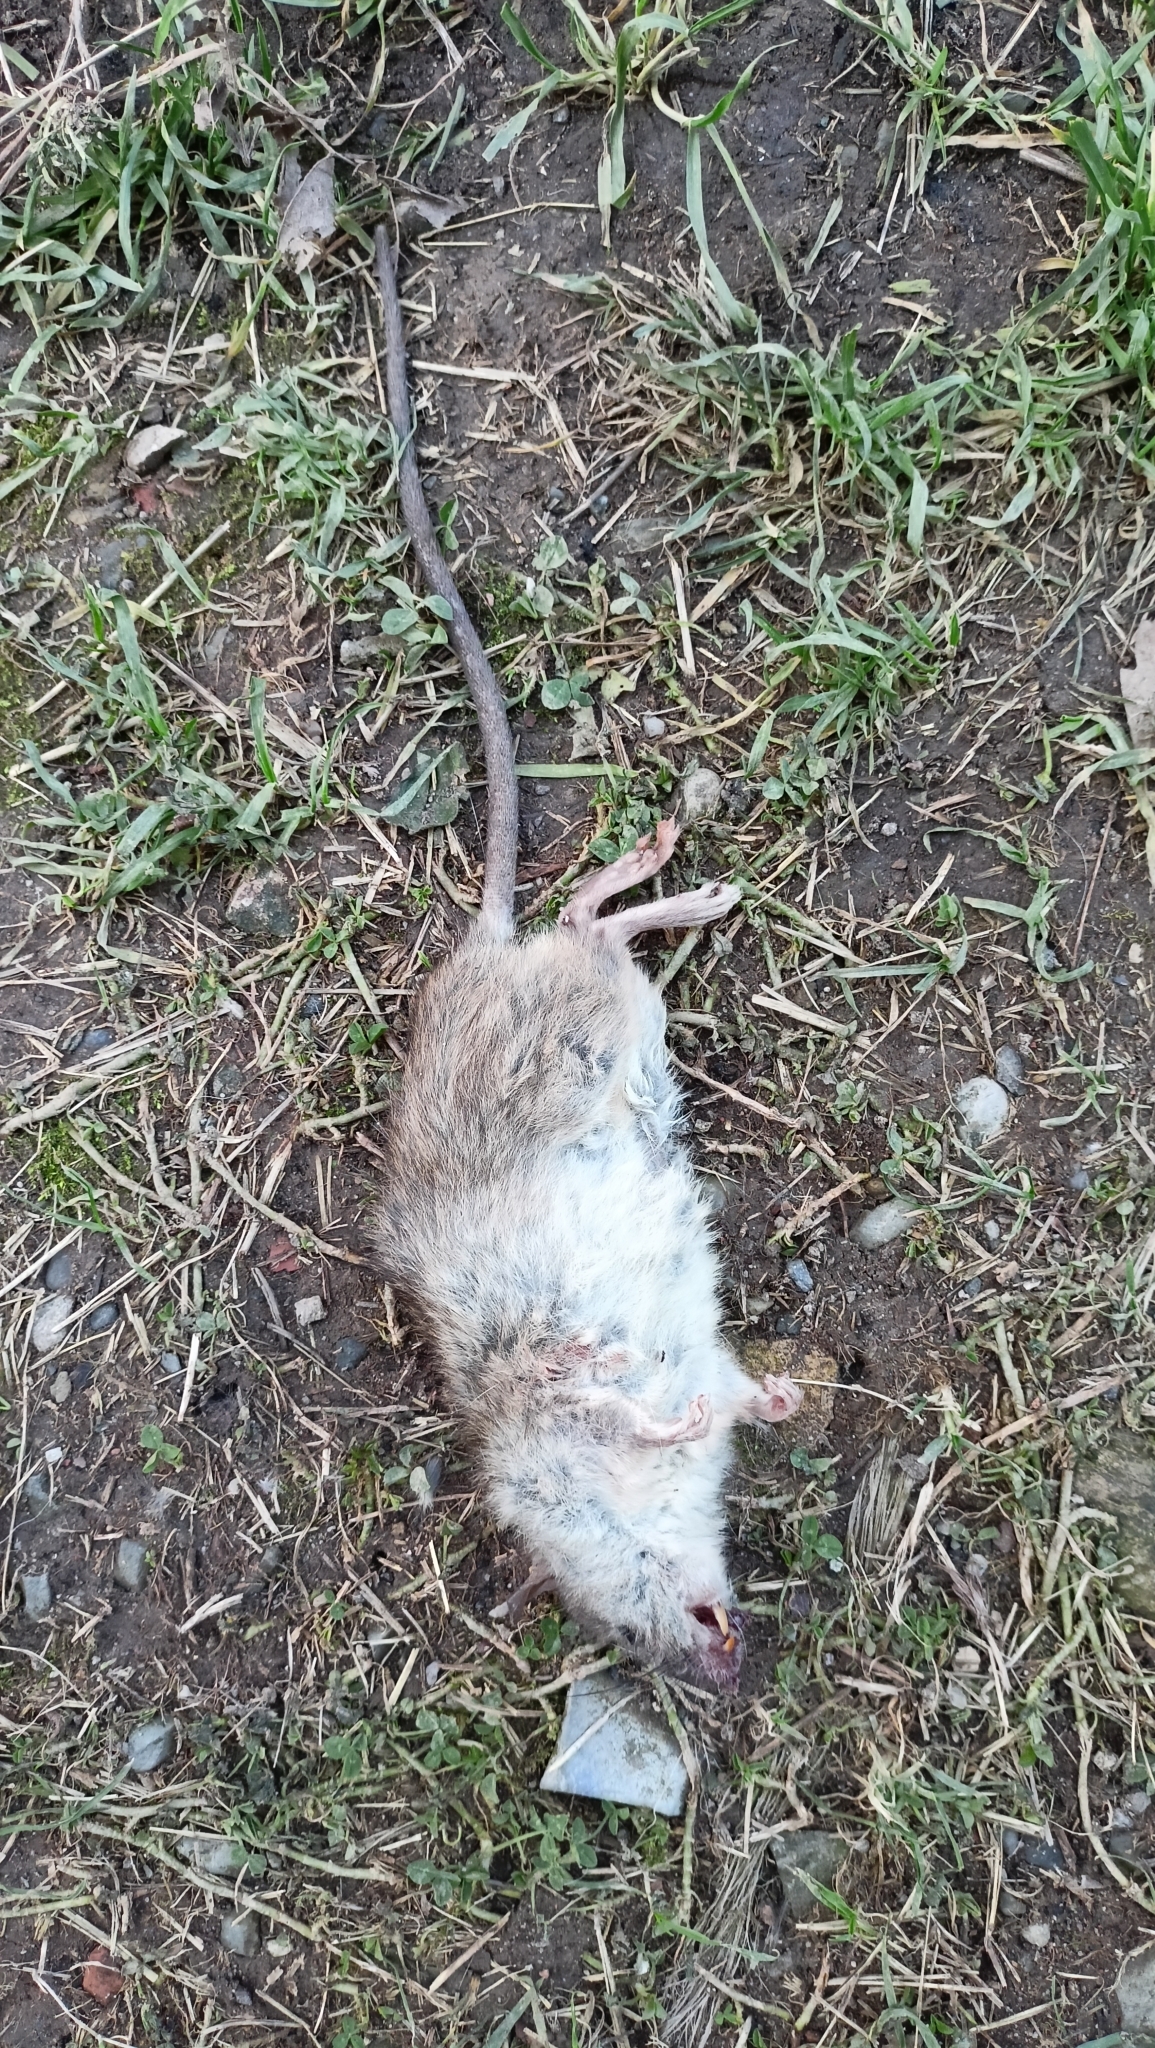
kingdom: Animalia
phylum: Chordata
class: Mammalia
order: Rodentia
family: Muridae
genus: Rattus
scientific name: Rattus norvegicus
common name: Brown rat
